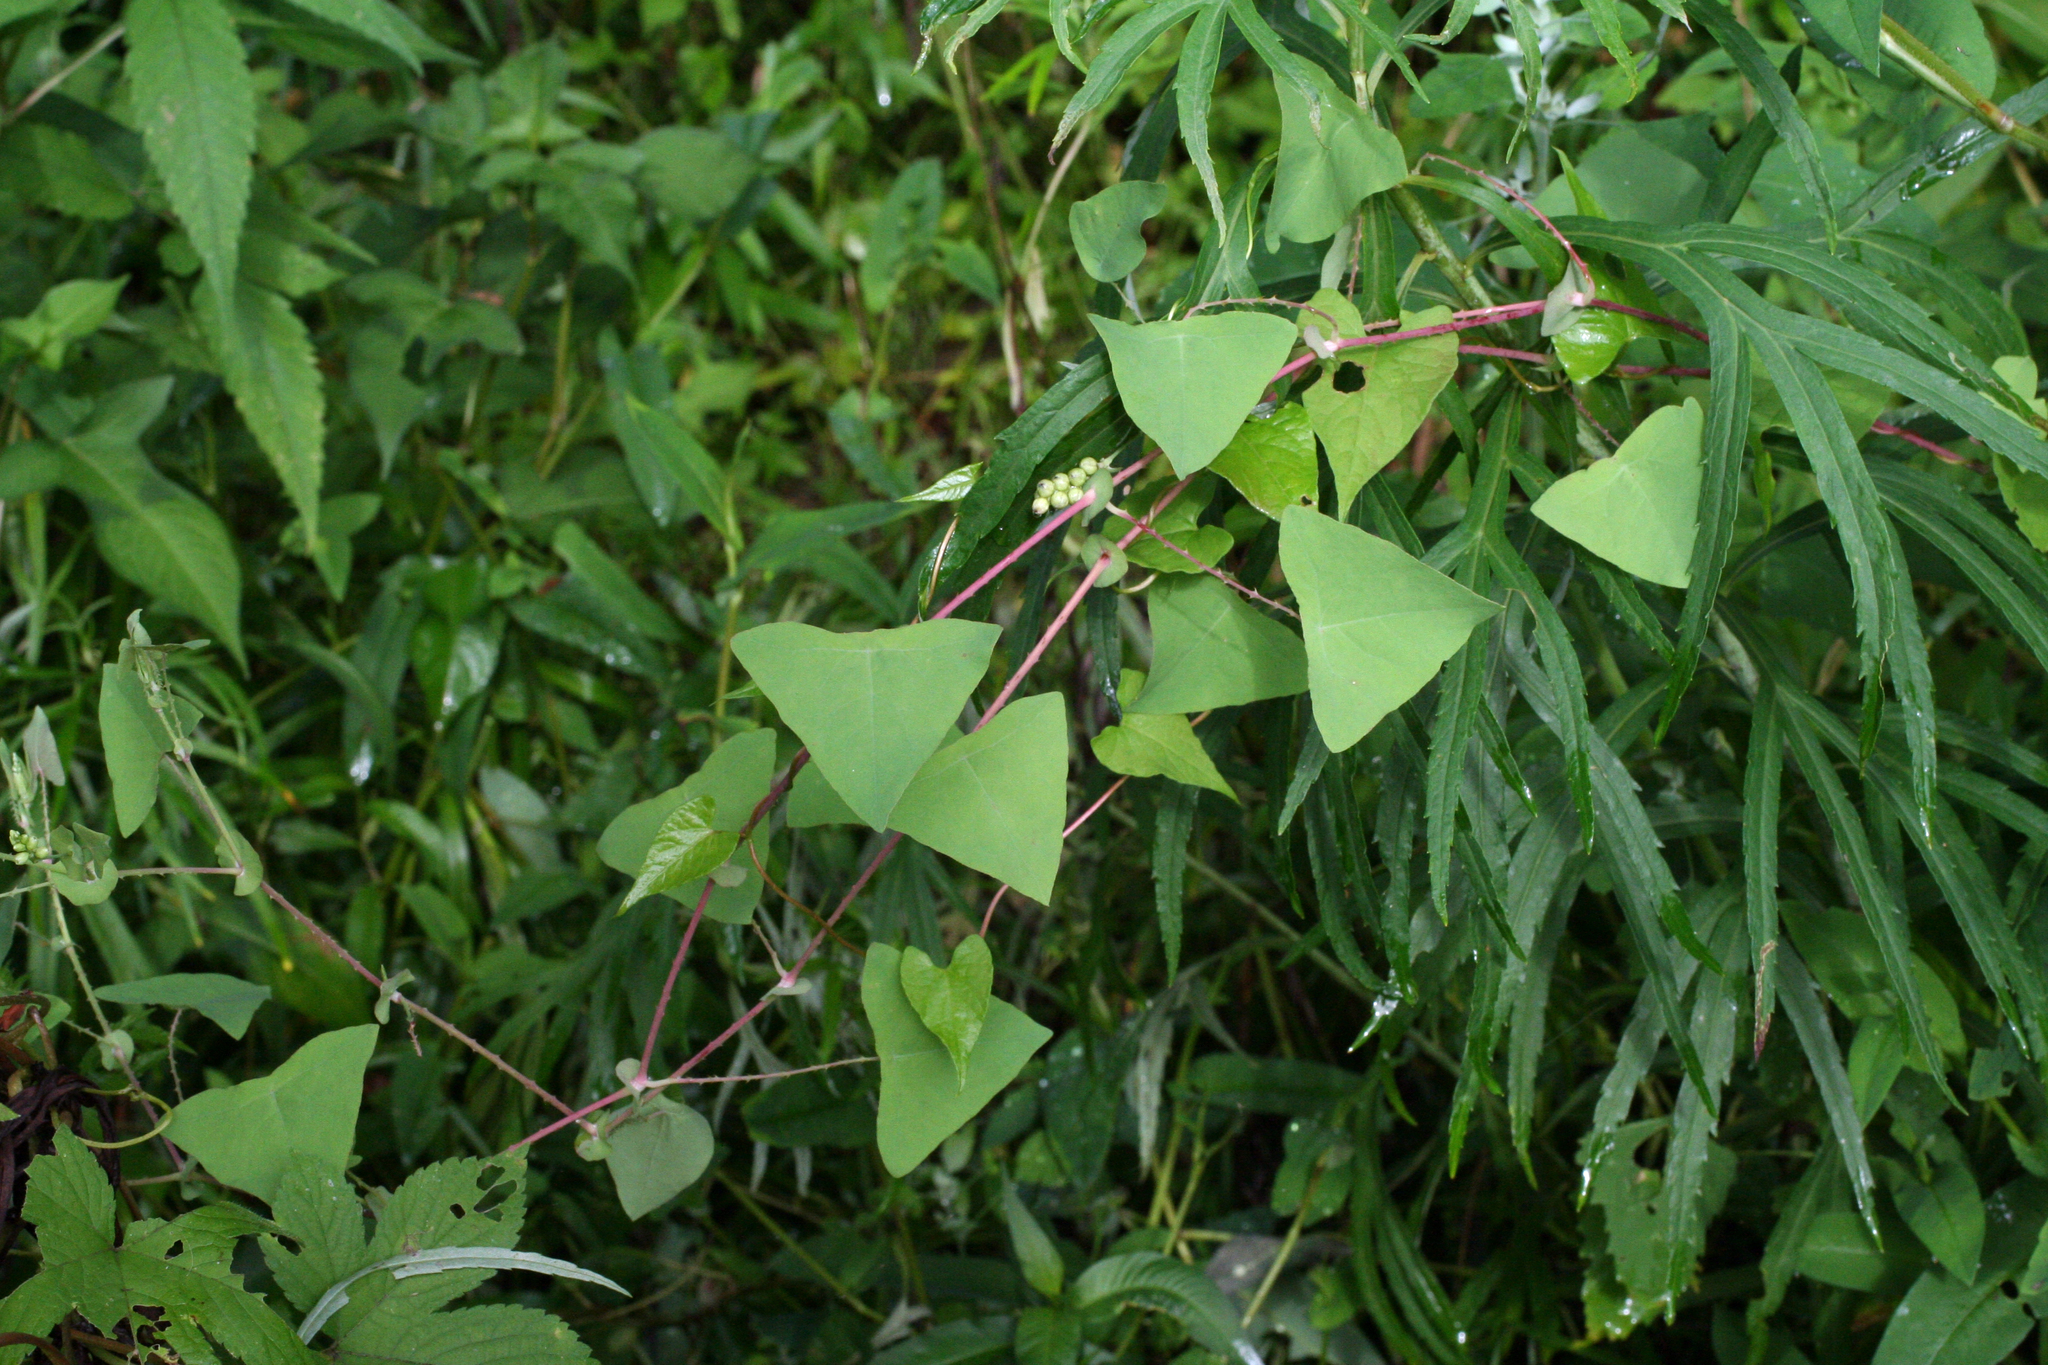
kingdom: Plantae
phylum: Tracheophyta
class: Magnoliopsida
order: Caryophyllales
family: Polygonaceae
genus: Persicaria
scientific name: Persicaria perfoliata
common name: Asiatic tearthumb
